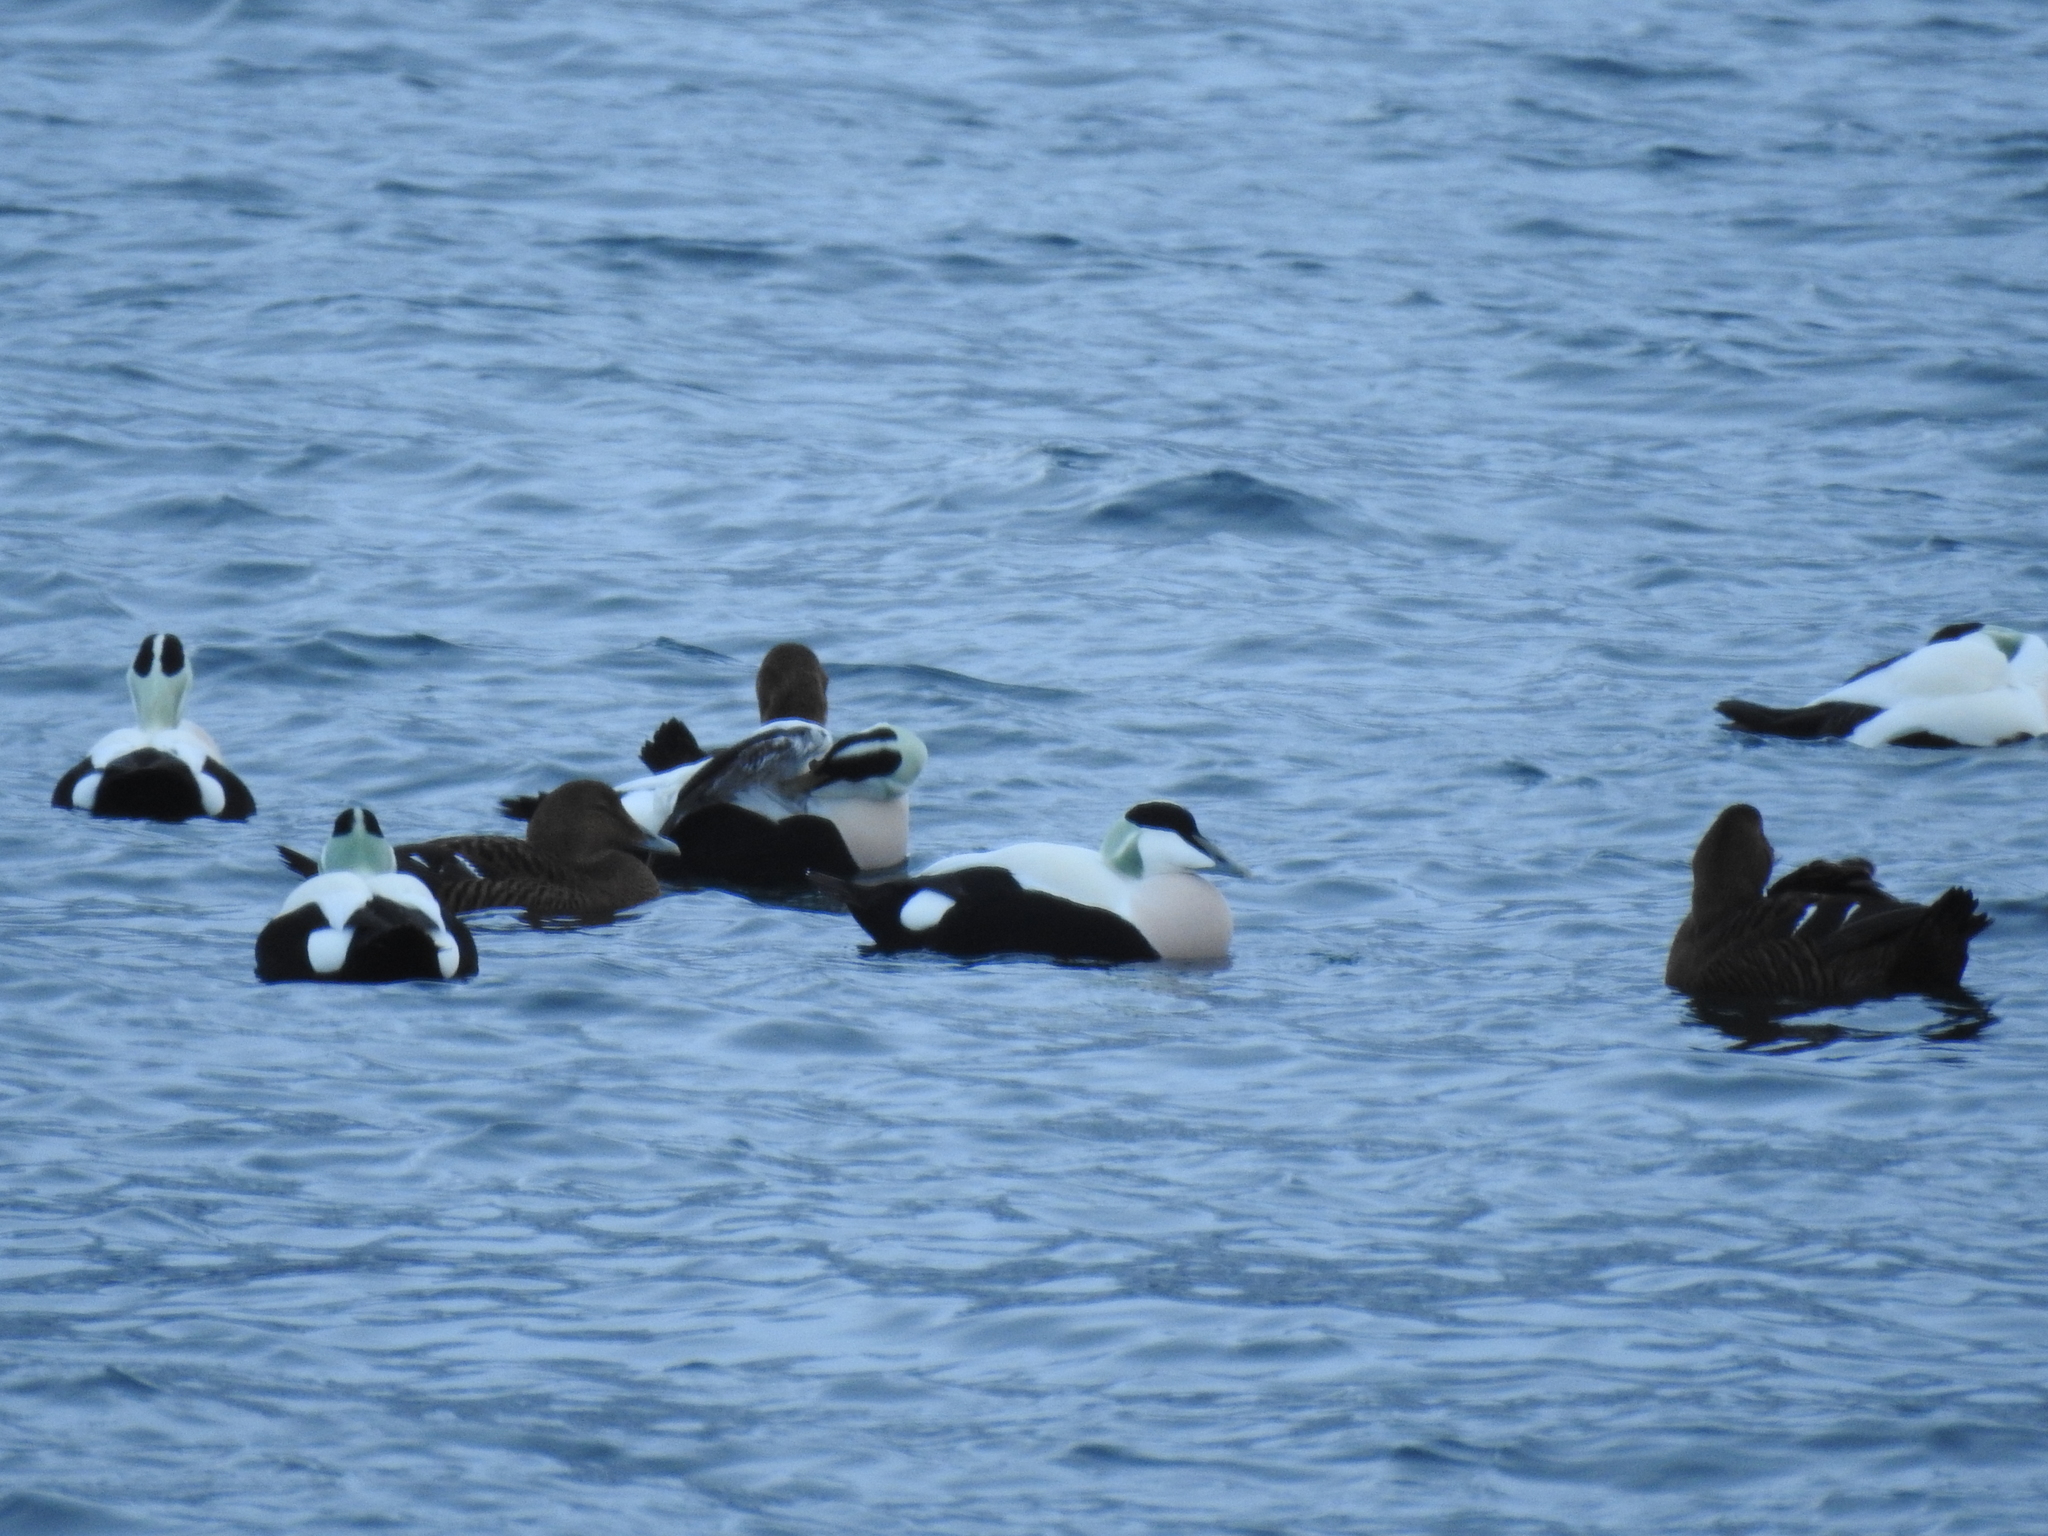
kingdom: Animalia
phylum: Chordata
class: Aves
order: Anseriformes
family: Anatidae
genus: Somateria
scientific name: Somateria mollissima
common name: Common eider
